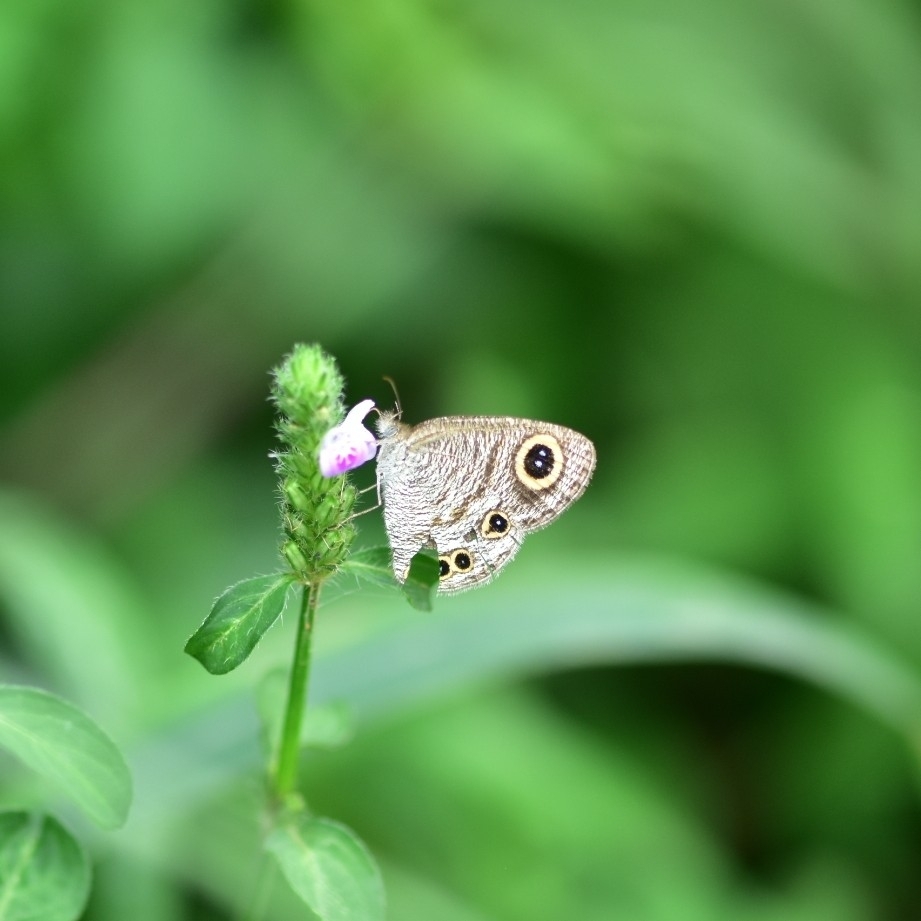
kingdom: Animalia
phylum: Arthropoda
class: Insecta
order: Lepidoptera
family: Nymphalidae
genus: Ypthima
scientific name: Ypthima huebneri
